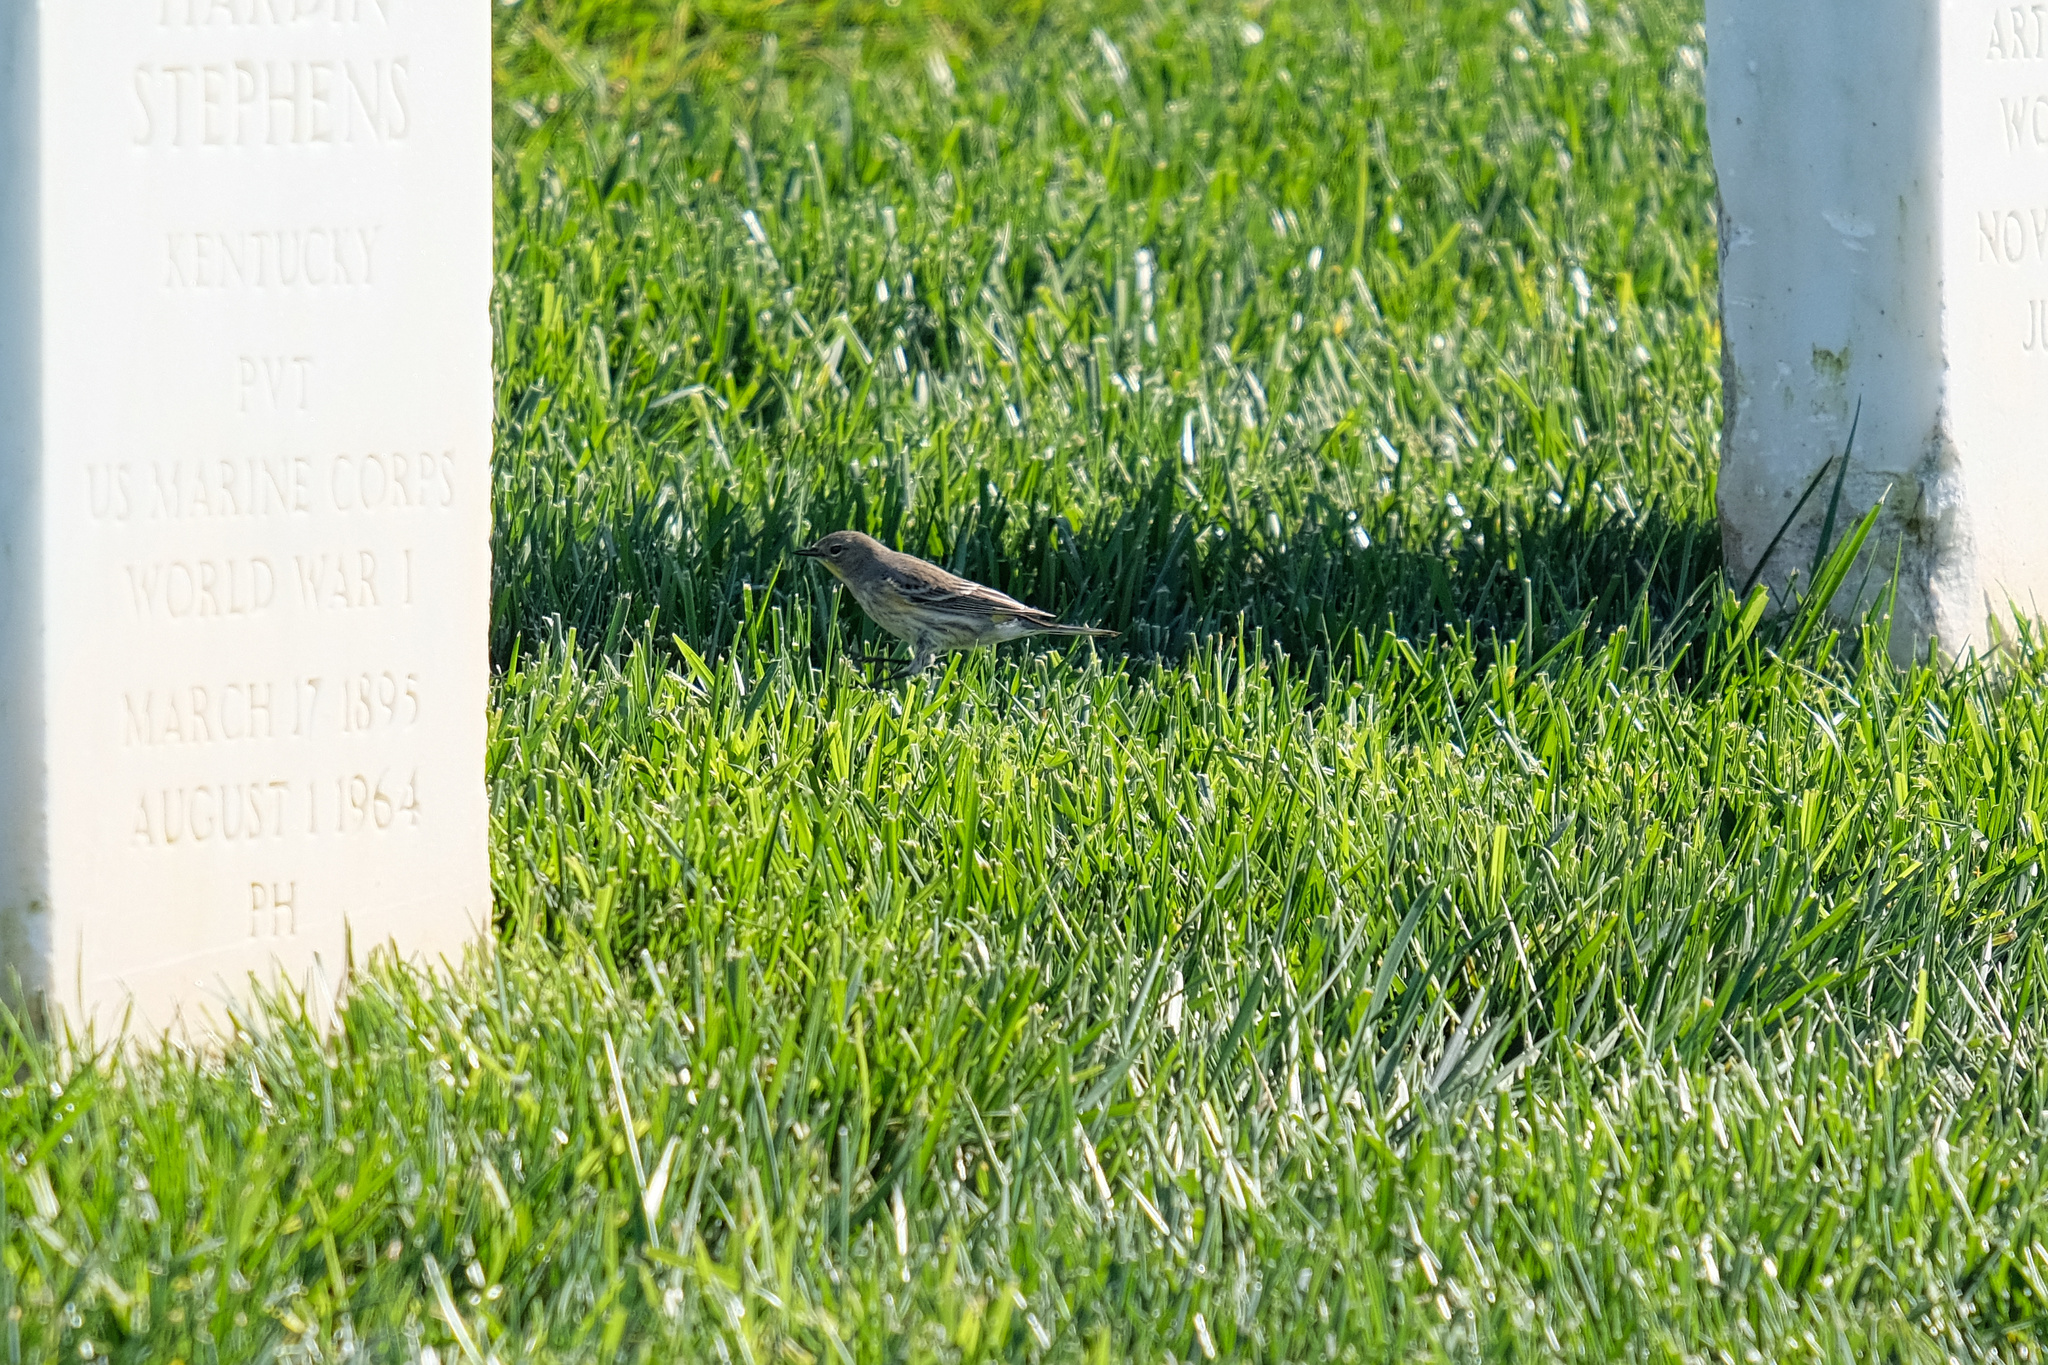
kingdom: Animalia
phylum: Chordata
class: Aves
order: Passeriformes
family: Parulidae
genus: Setophaga
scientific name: Setophaga coronata
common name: Myrtle warbler
